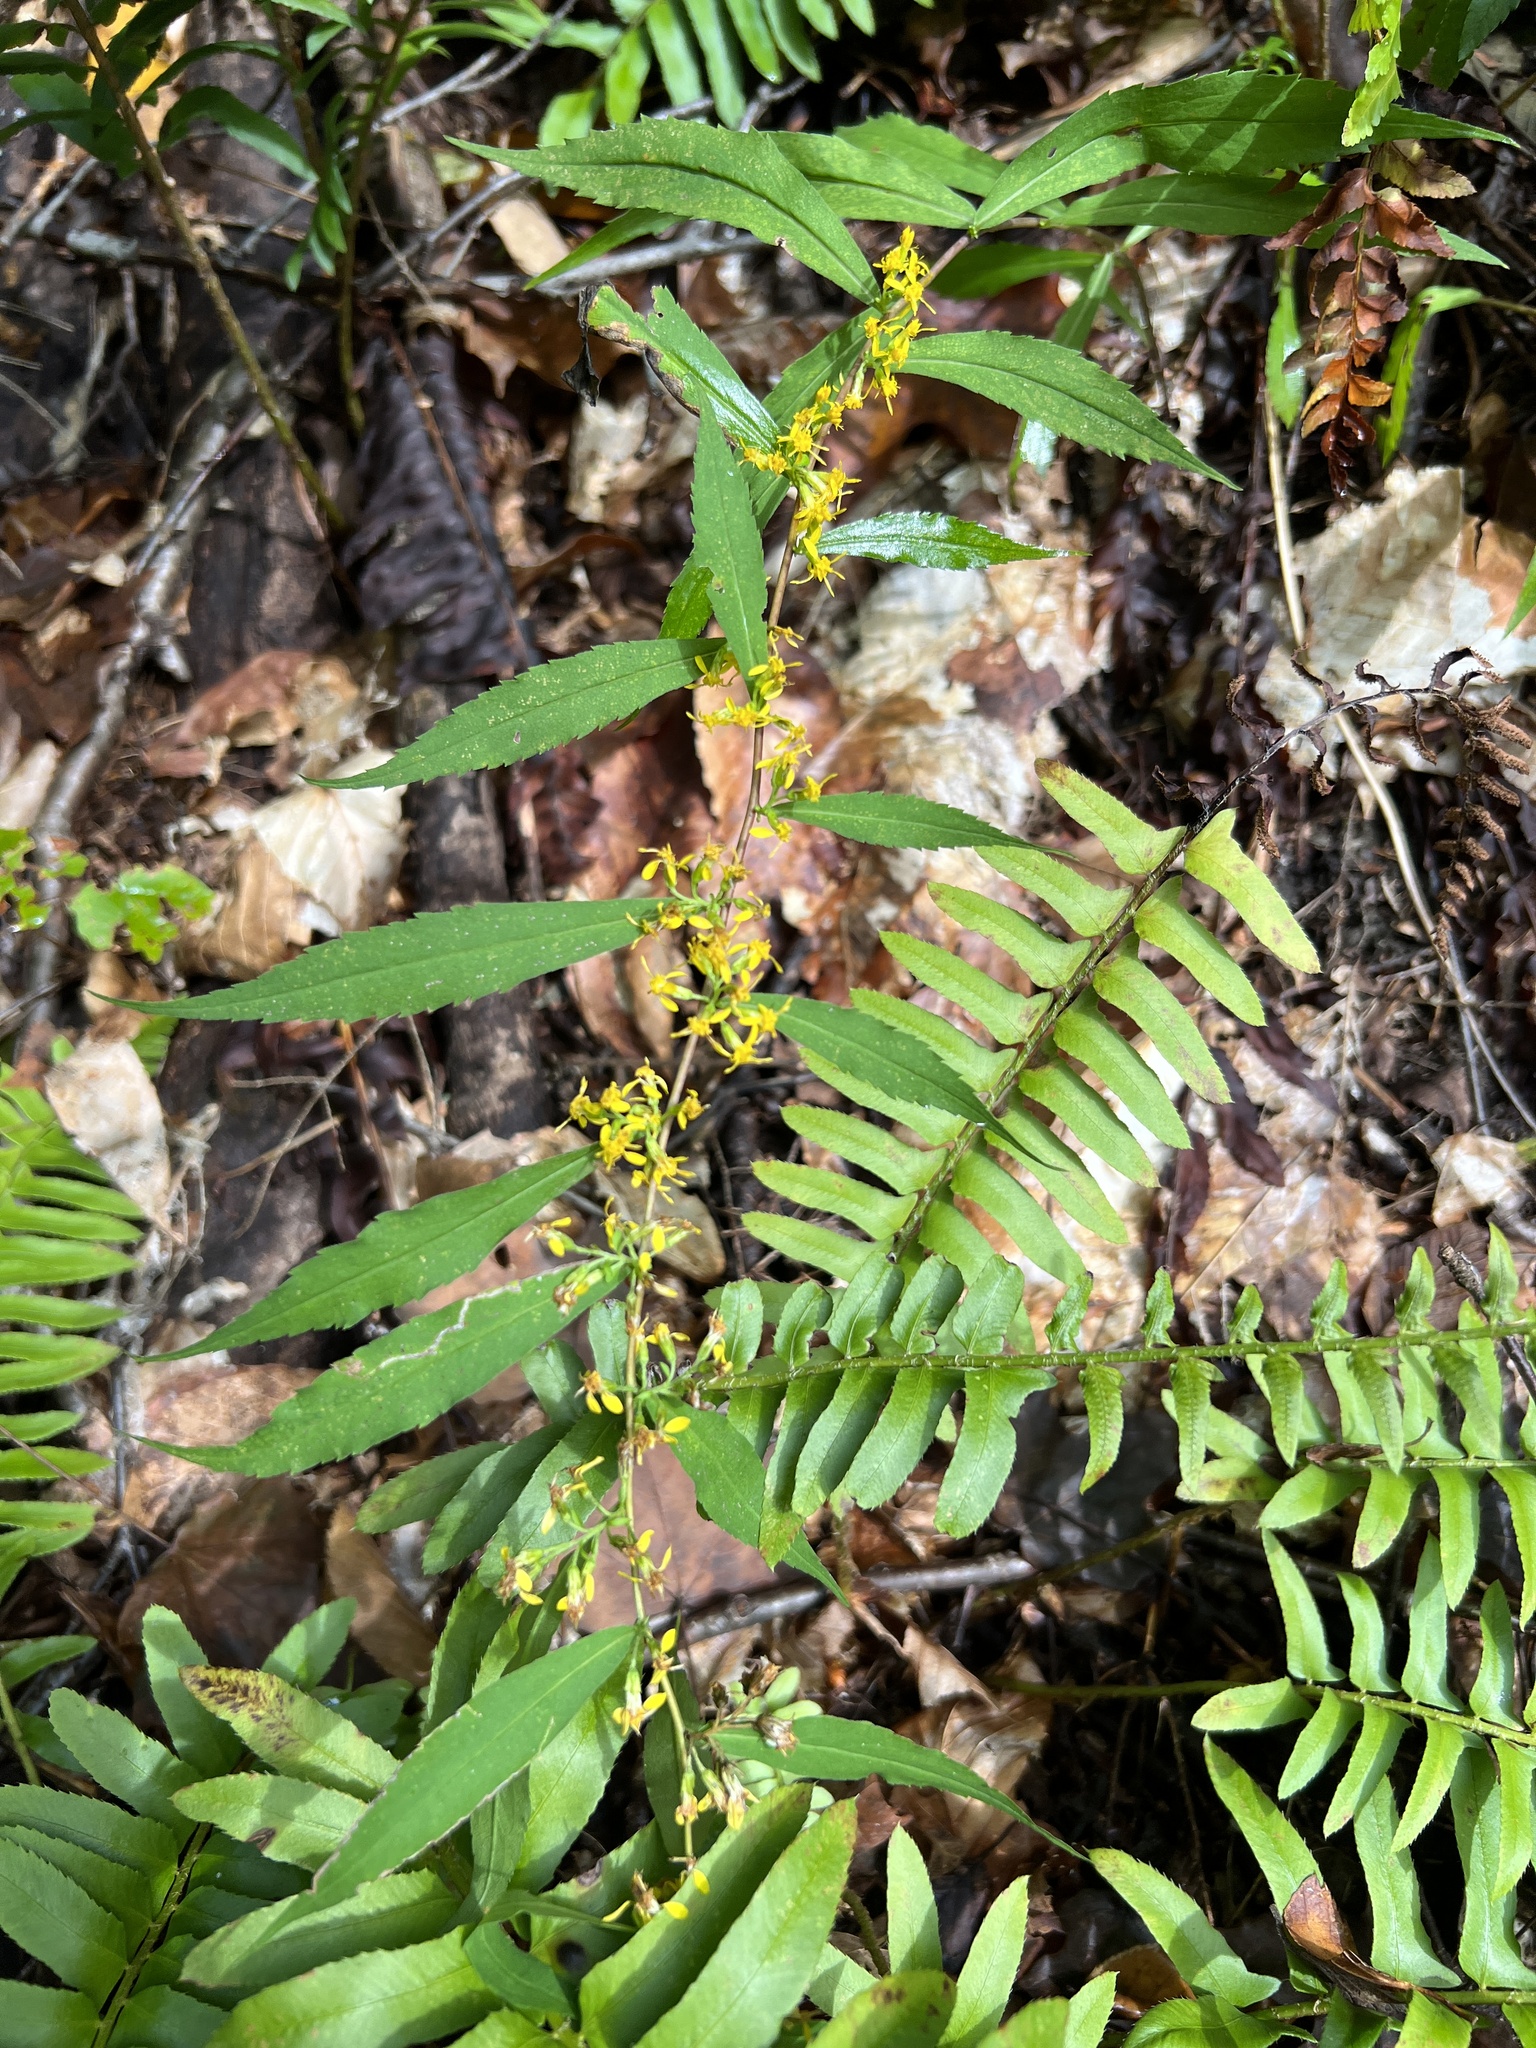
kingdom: Plantae
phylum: Tracheophyta
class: Magnoliopsida
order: Asterales
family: Asteraceae
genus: Solidago
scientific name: Solidago caesia
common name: Woodland goldenrod
